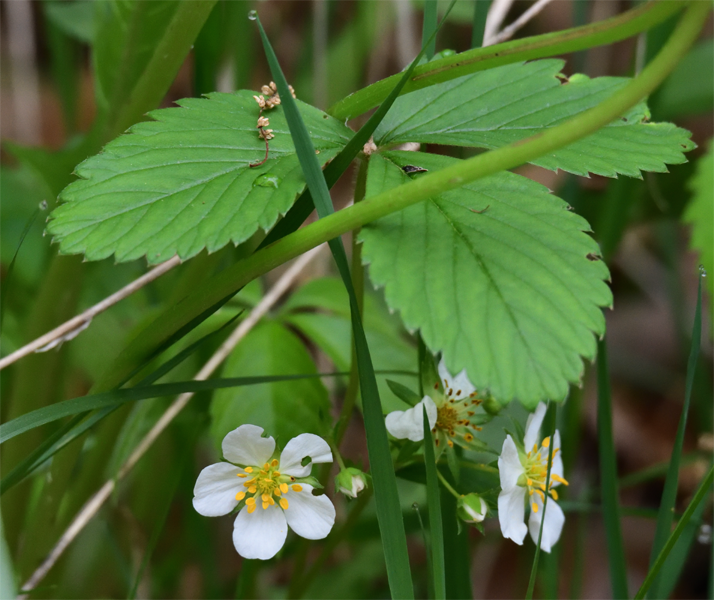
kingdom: Plantae
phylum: Tracheophyta
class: Magnoliopsida
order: Rosales
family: Rosaceae
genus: Fragaria
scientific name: Fragaria virginiana
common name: Thickleaved wild strawberry
